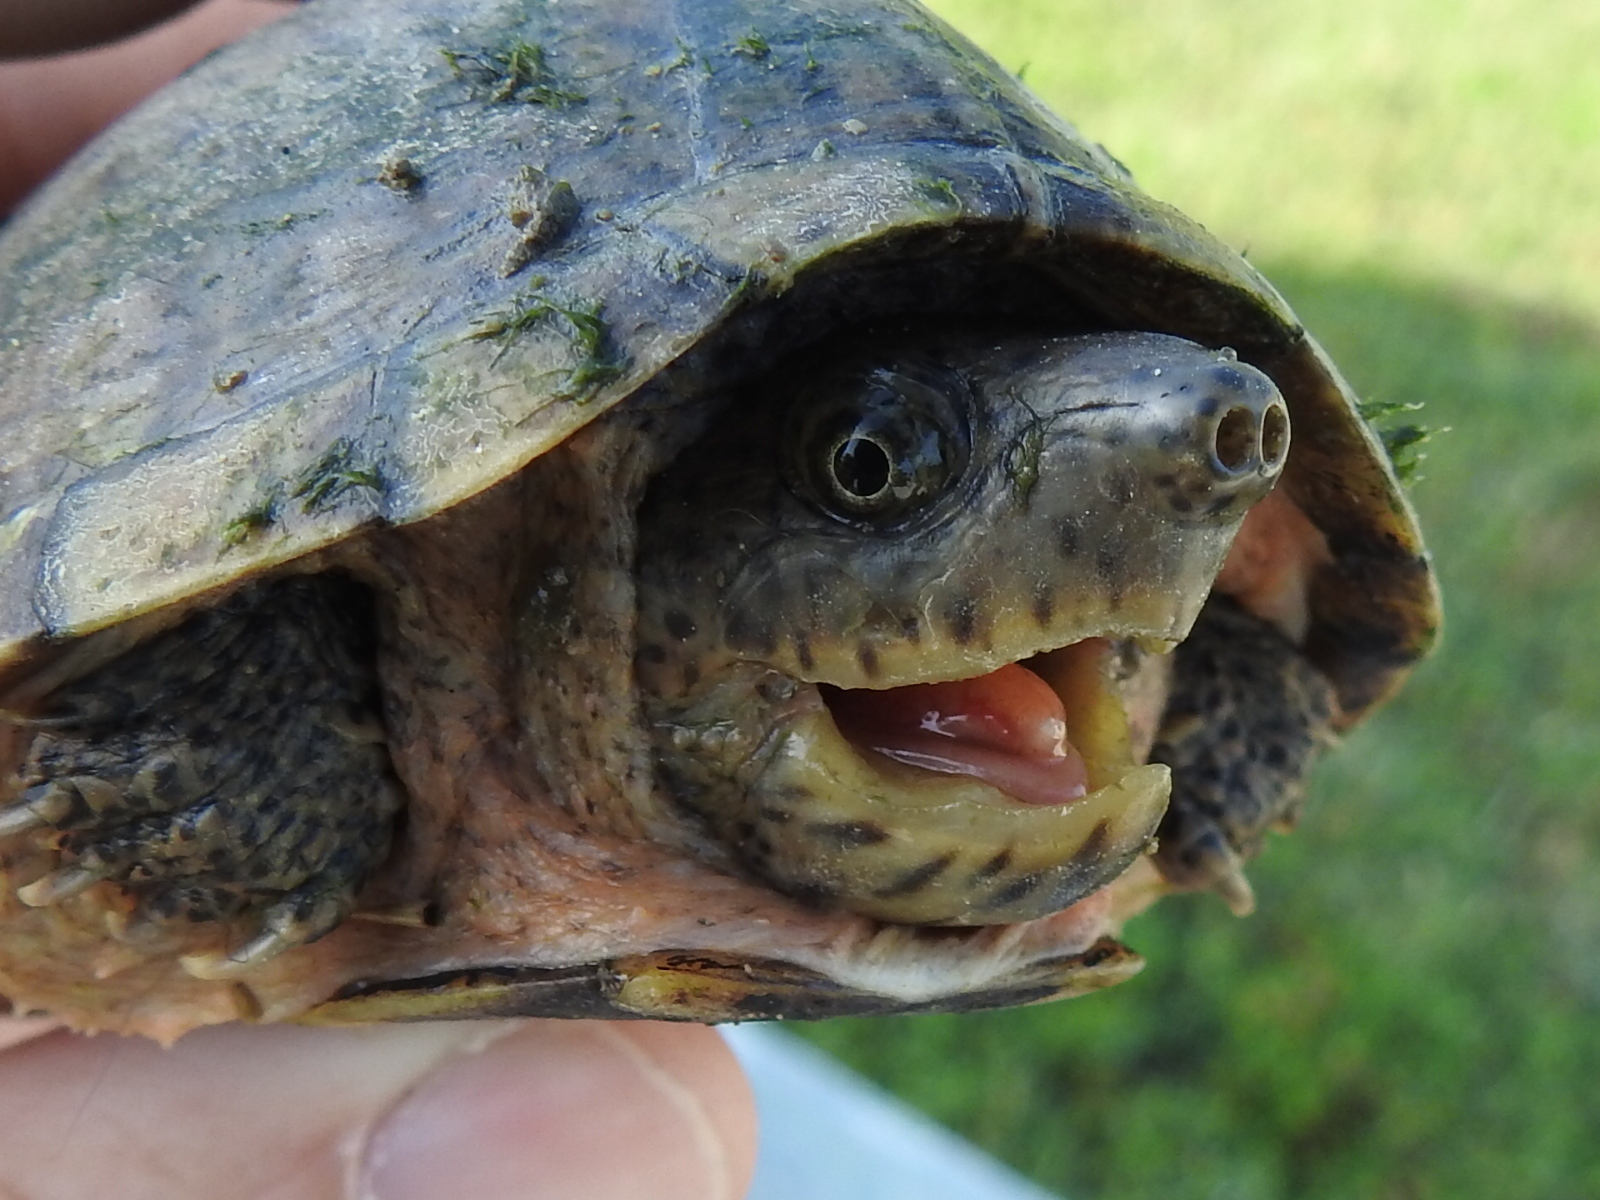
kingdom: Animalia
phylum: Chordata
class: Testudines
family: Kinosternidae
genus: Sternotherus
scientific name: Sternotherus carinatus
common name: Razor-backed musk turtle
